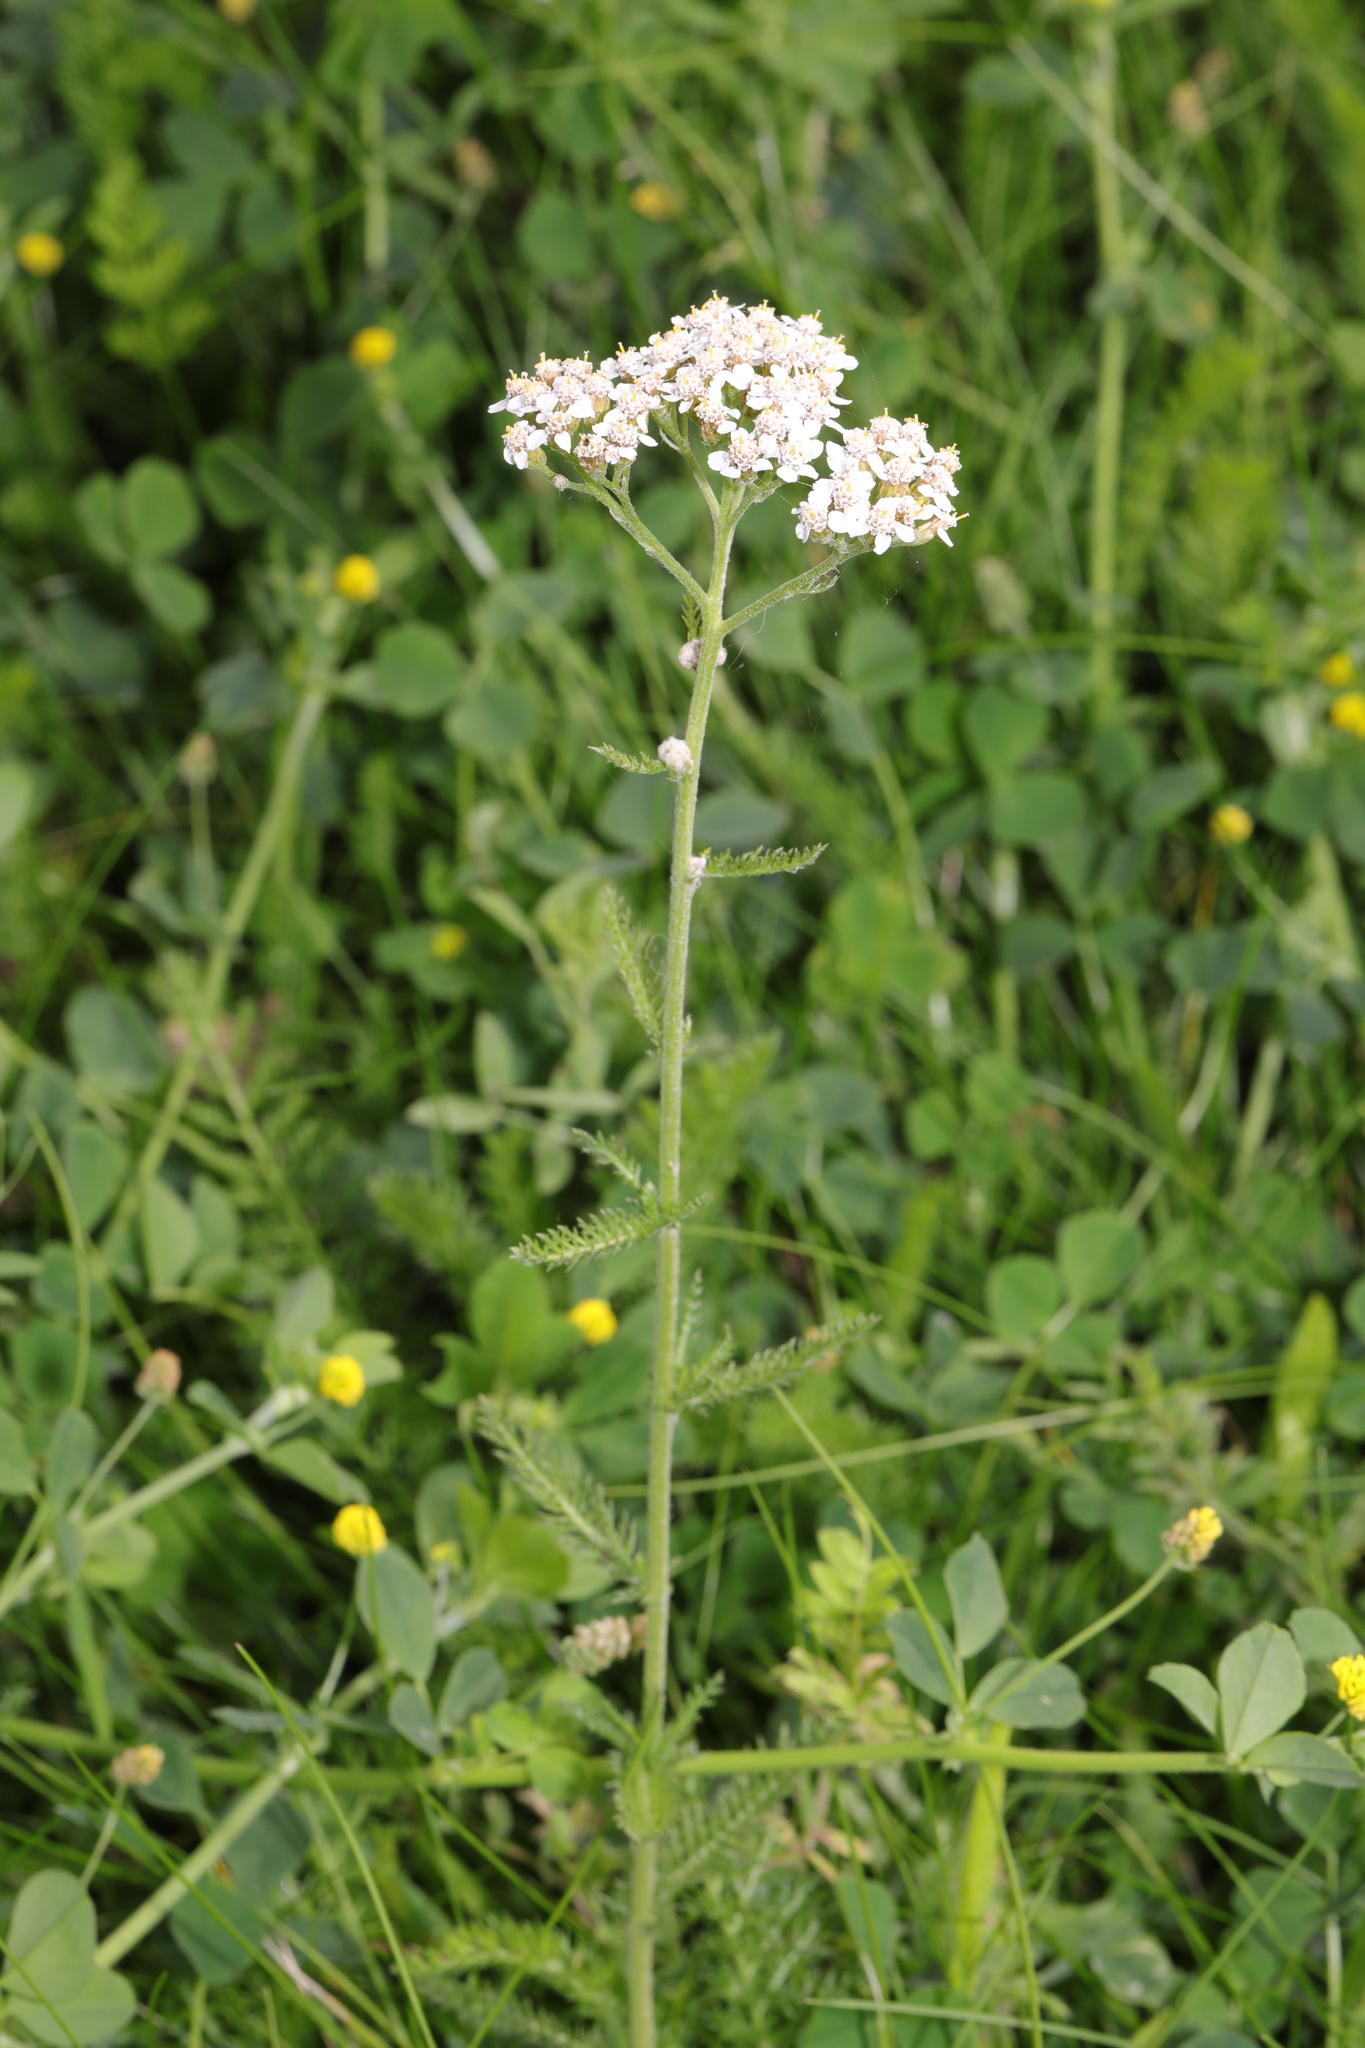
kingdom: Plantae
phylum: Tracheophyta
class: Magnoliopsida
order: Asterales
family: Asteraceae
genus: Achillea
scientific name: Achillea millefolium
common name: Yarrow
